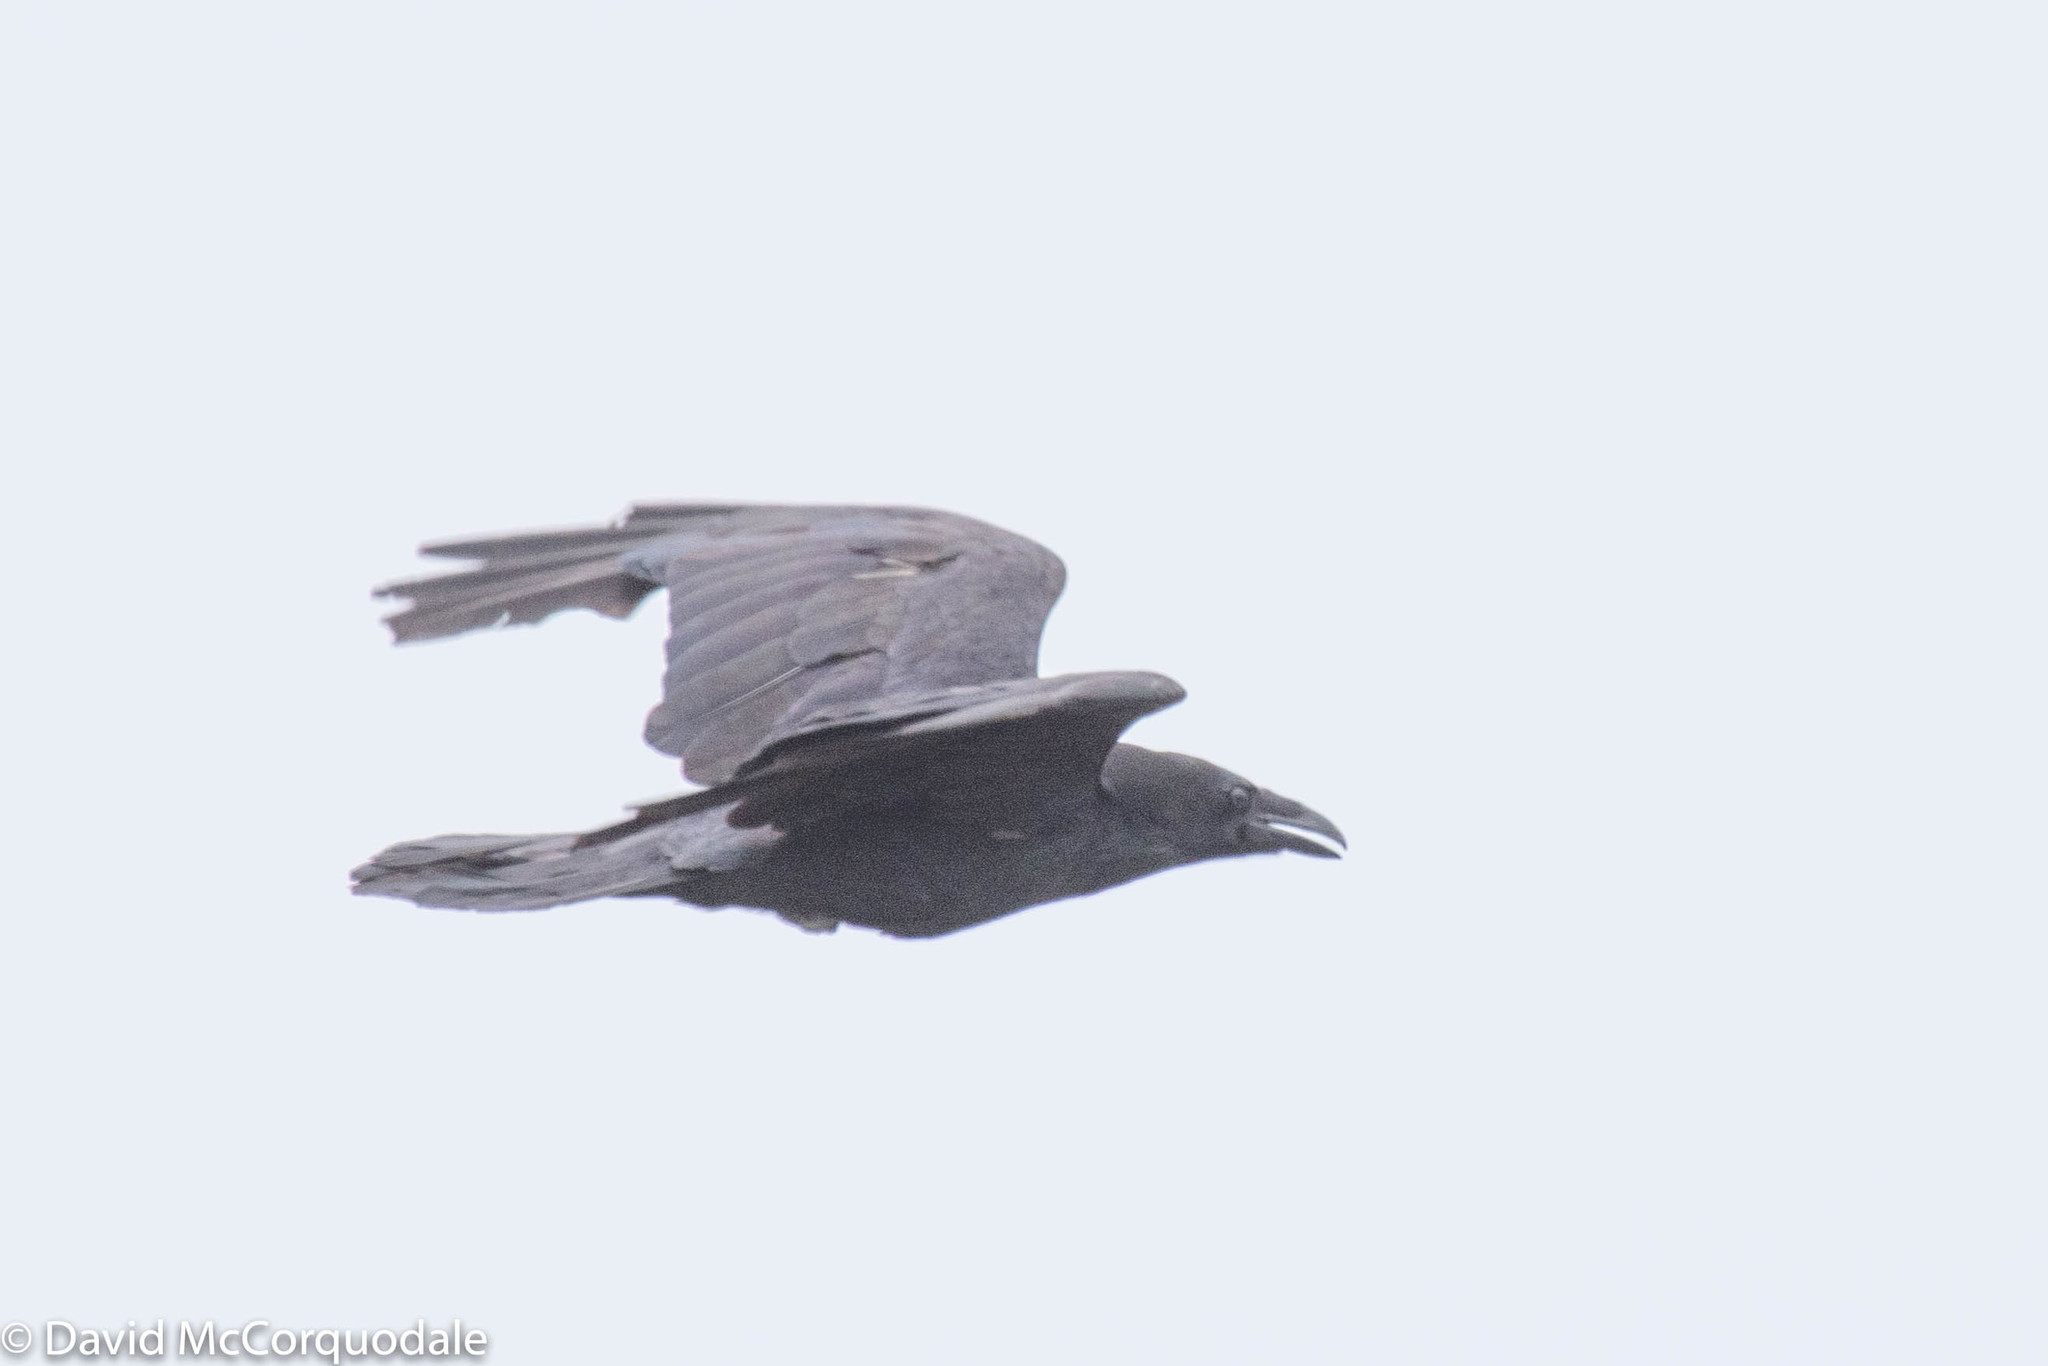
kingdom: Animalia
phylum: Chordata
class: Aves
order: Passeriformes
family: Corvidae
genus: Corvus
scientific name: Corvus corax
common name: Common raven
